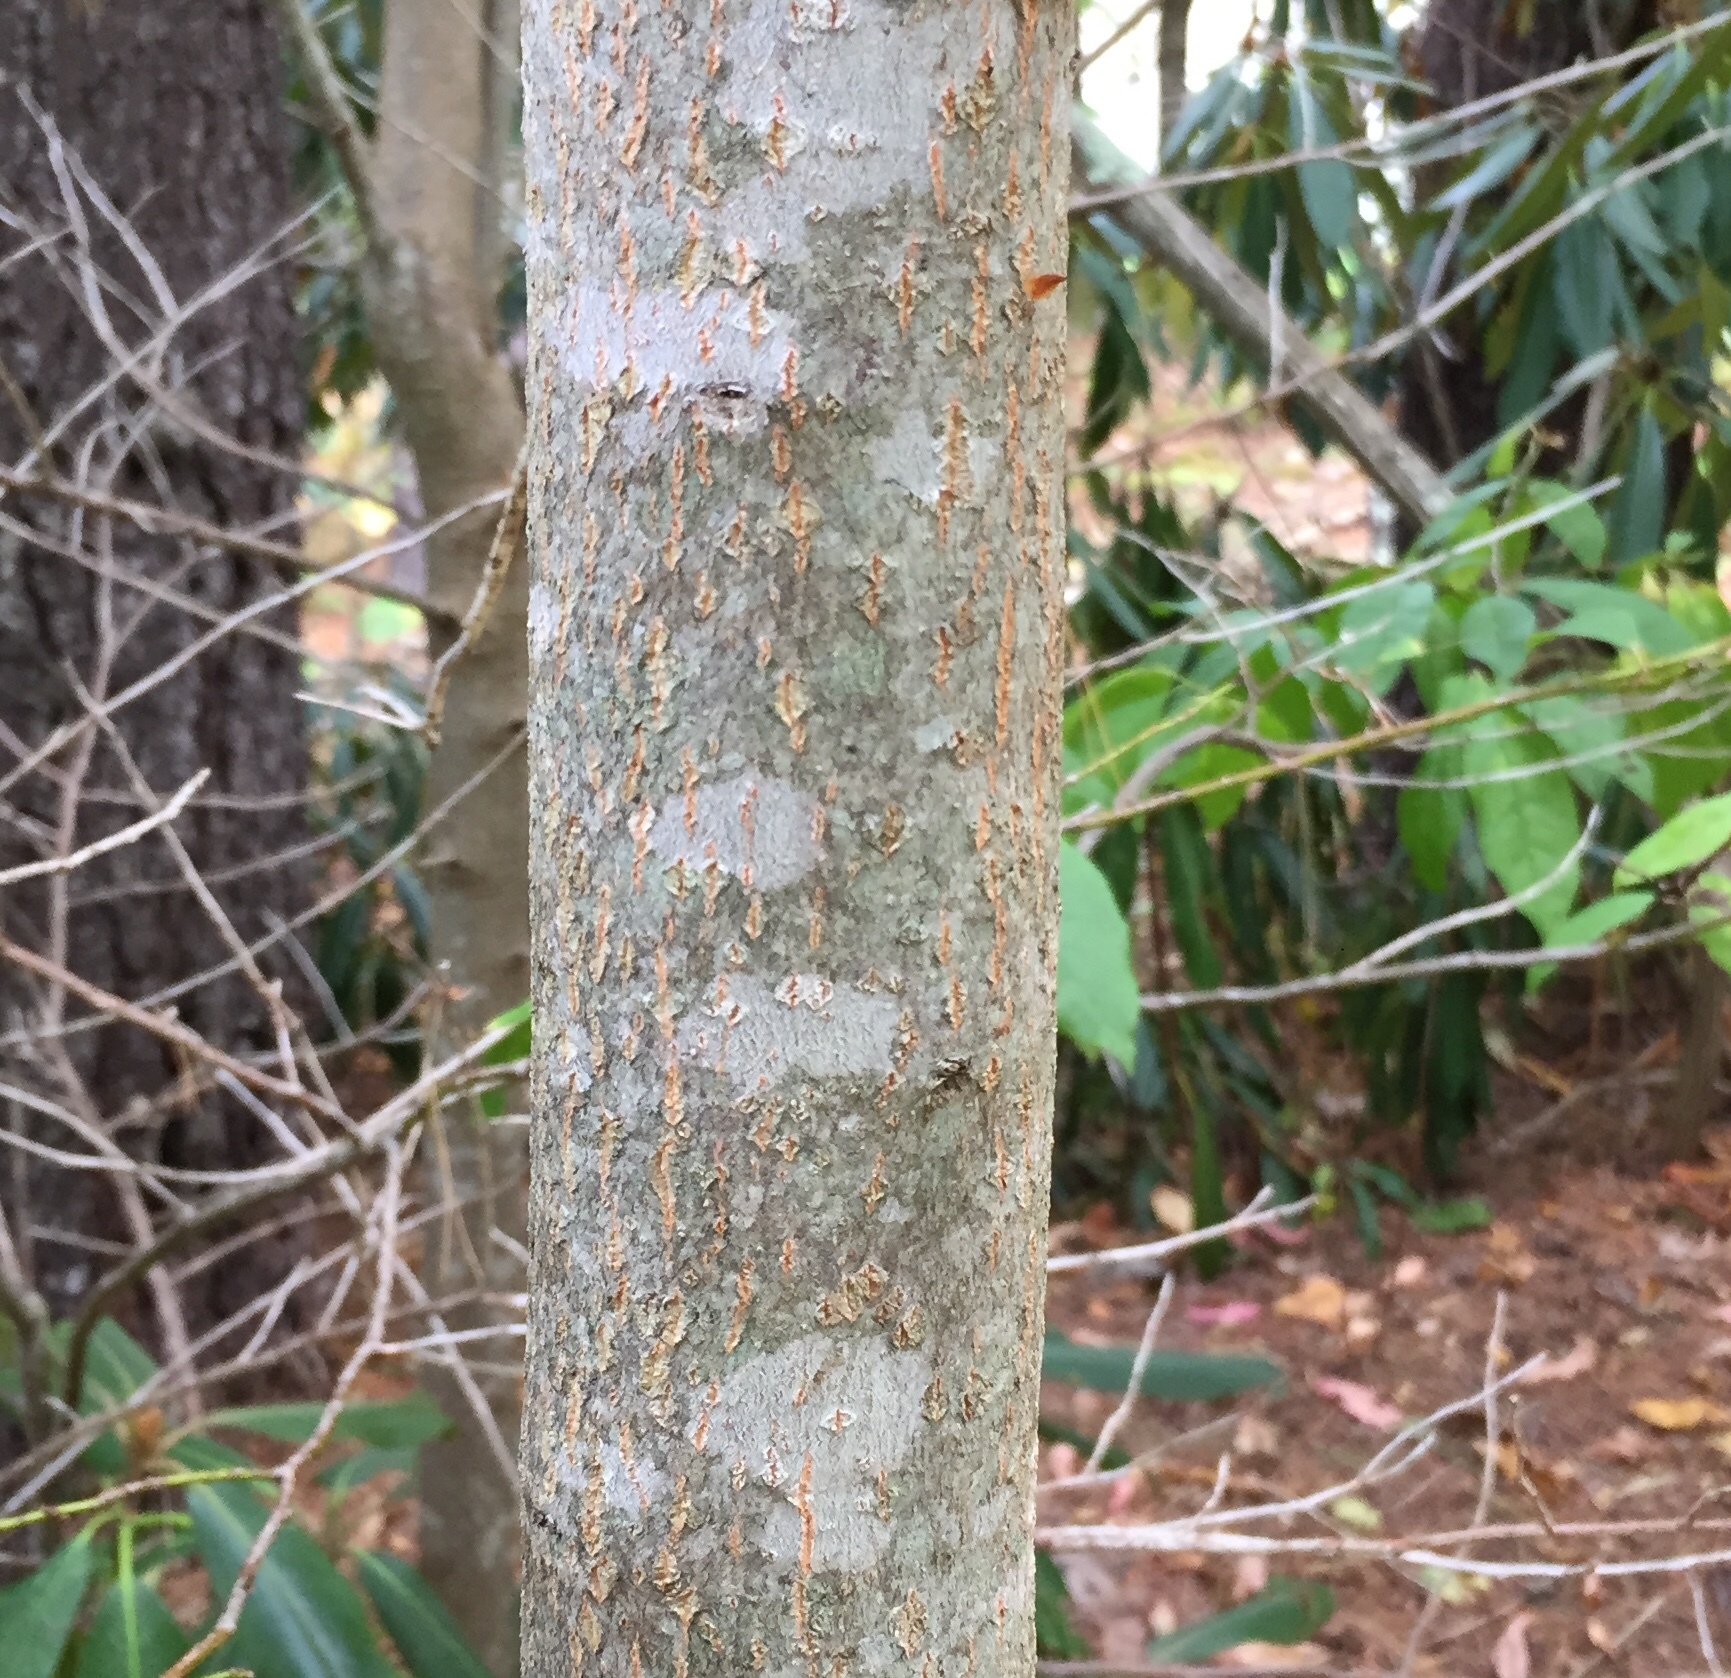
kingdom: Plantae
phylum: Tracheophyta
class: Magnoliopsida
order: Ericales
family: Ericaceae
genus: Oxydendrum
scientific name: Oxydendrum arboreum
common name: Sourwood
